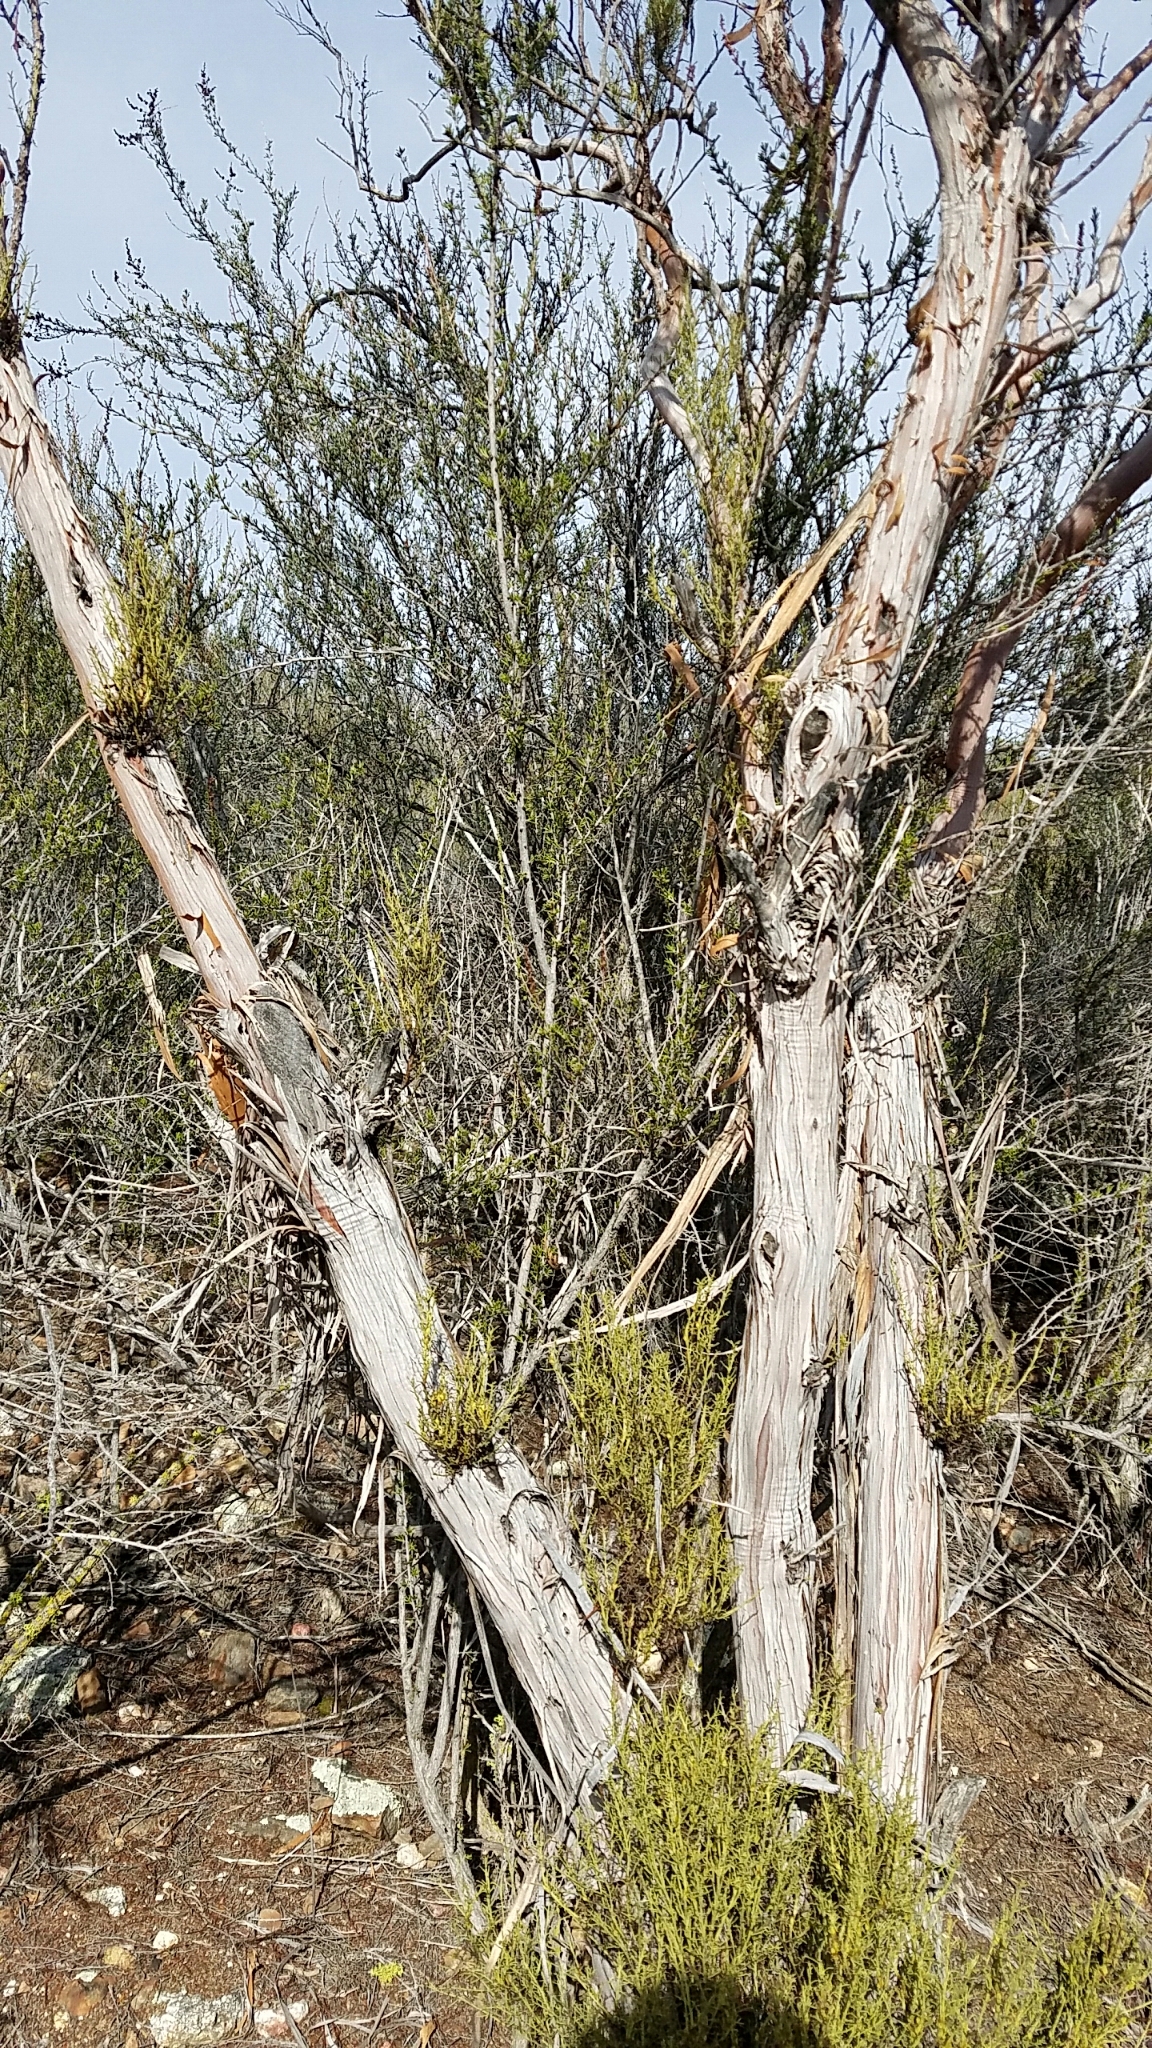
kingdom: Plantae
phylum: Tracheophyta
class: Magnoliopsida
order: Rosales
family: Rosaceae
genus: Adenostoma
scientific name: Adenostoma sparsifolium
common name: Red shank
